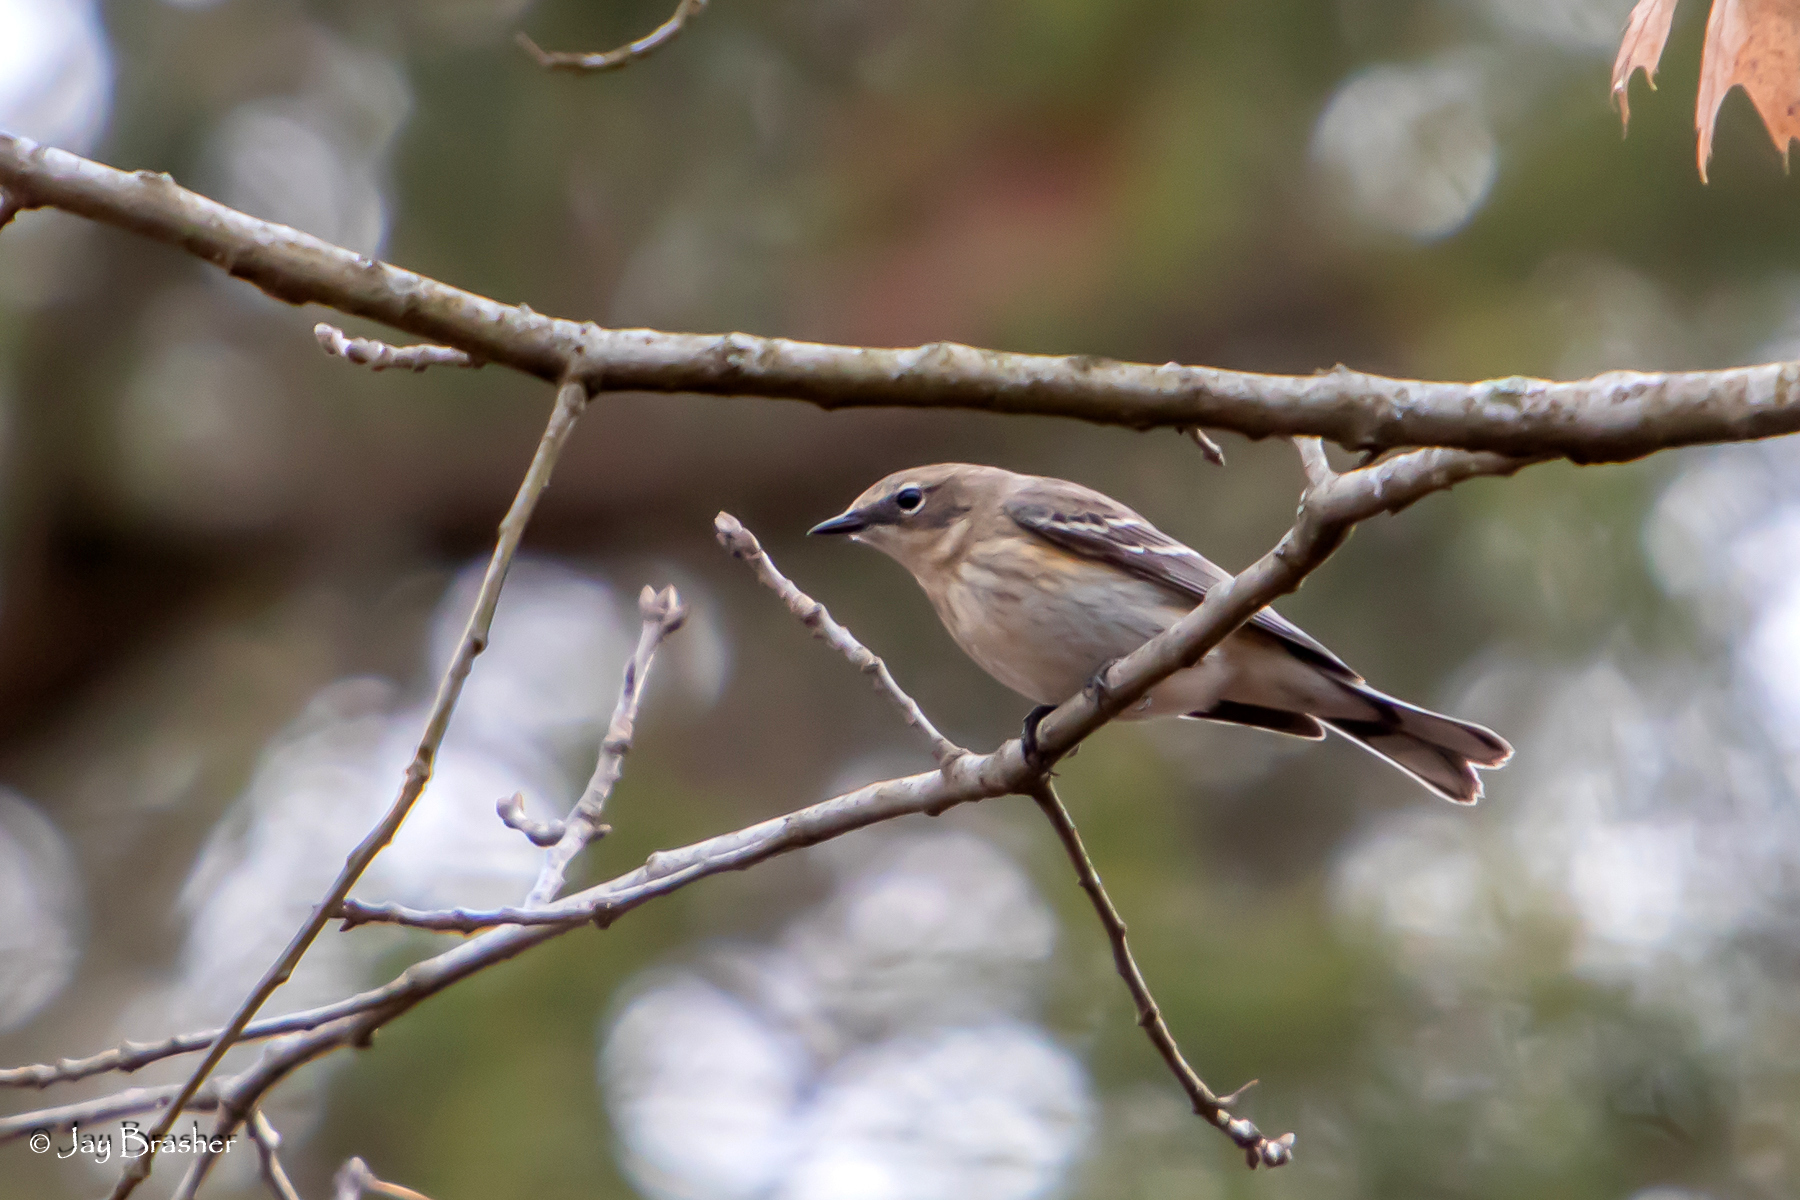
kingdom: Animalia
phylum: Chordata
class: Aves
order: Passeriformes
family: Parulidae
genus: Setophaga
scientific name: Setophaga coronata
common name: Myrtle warbler
